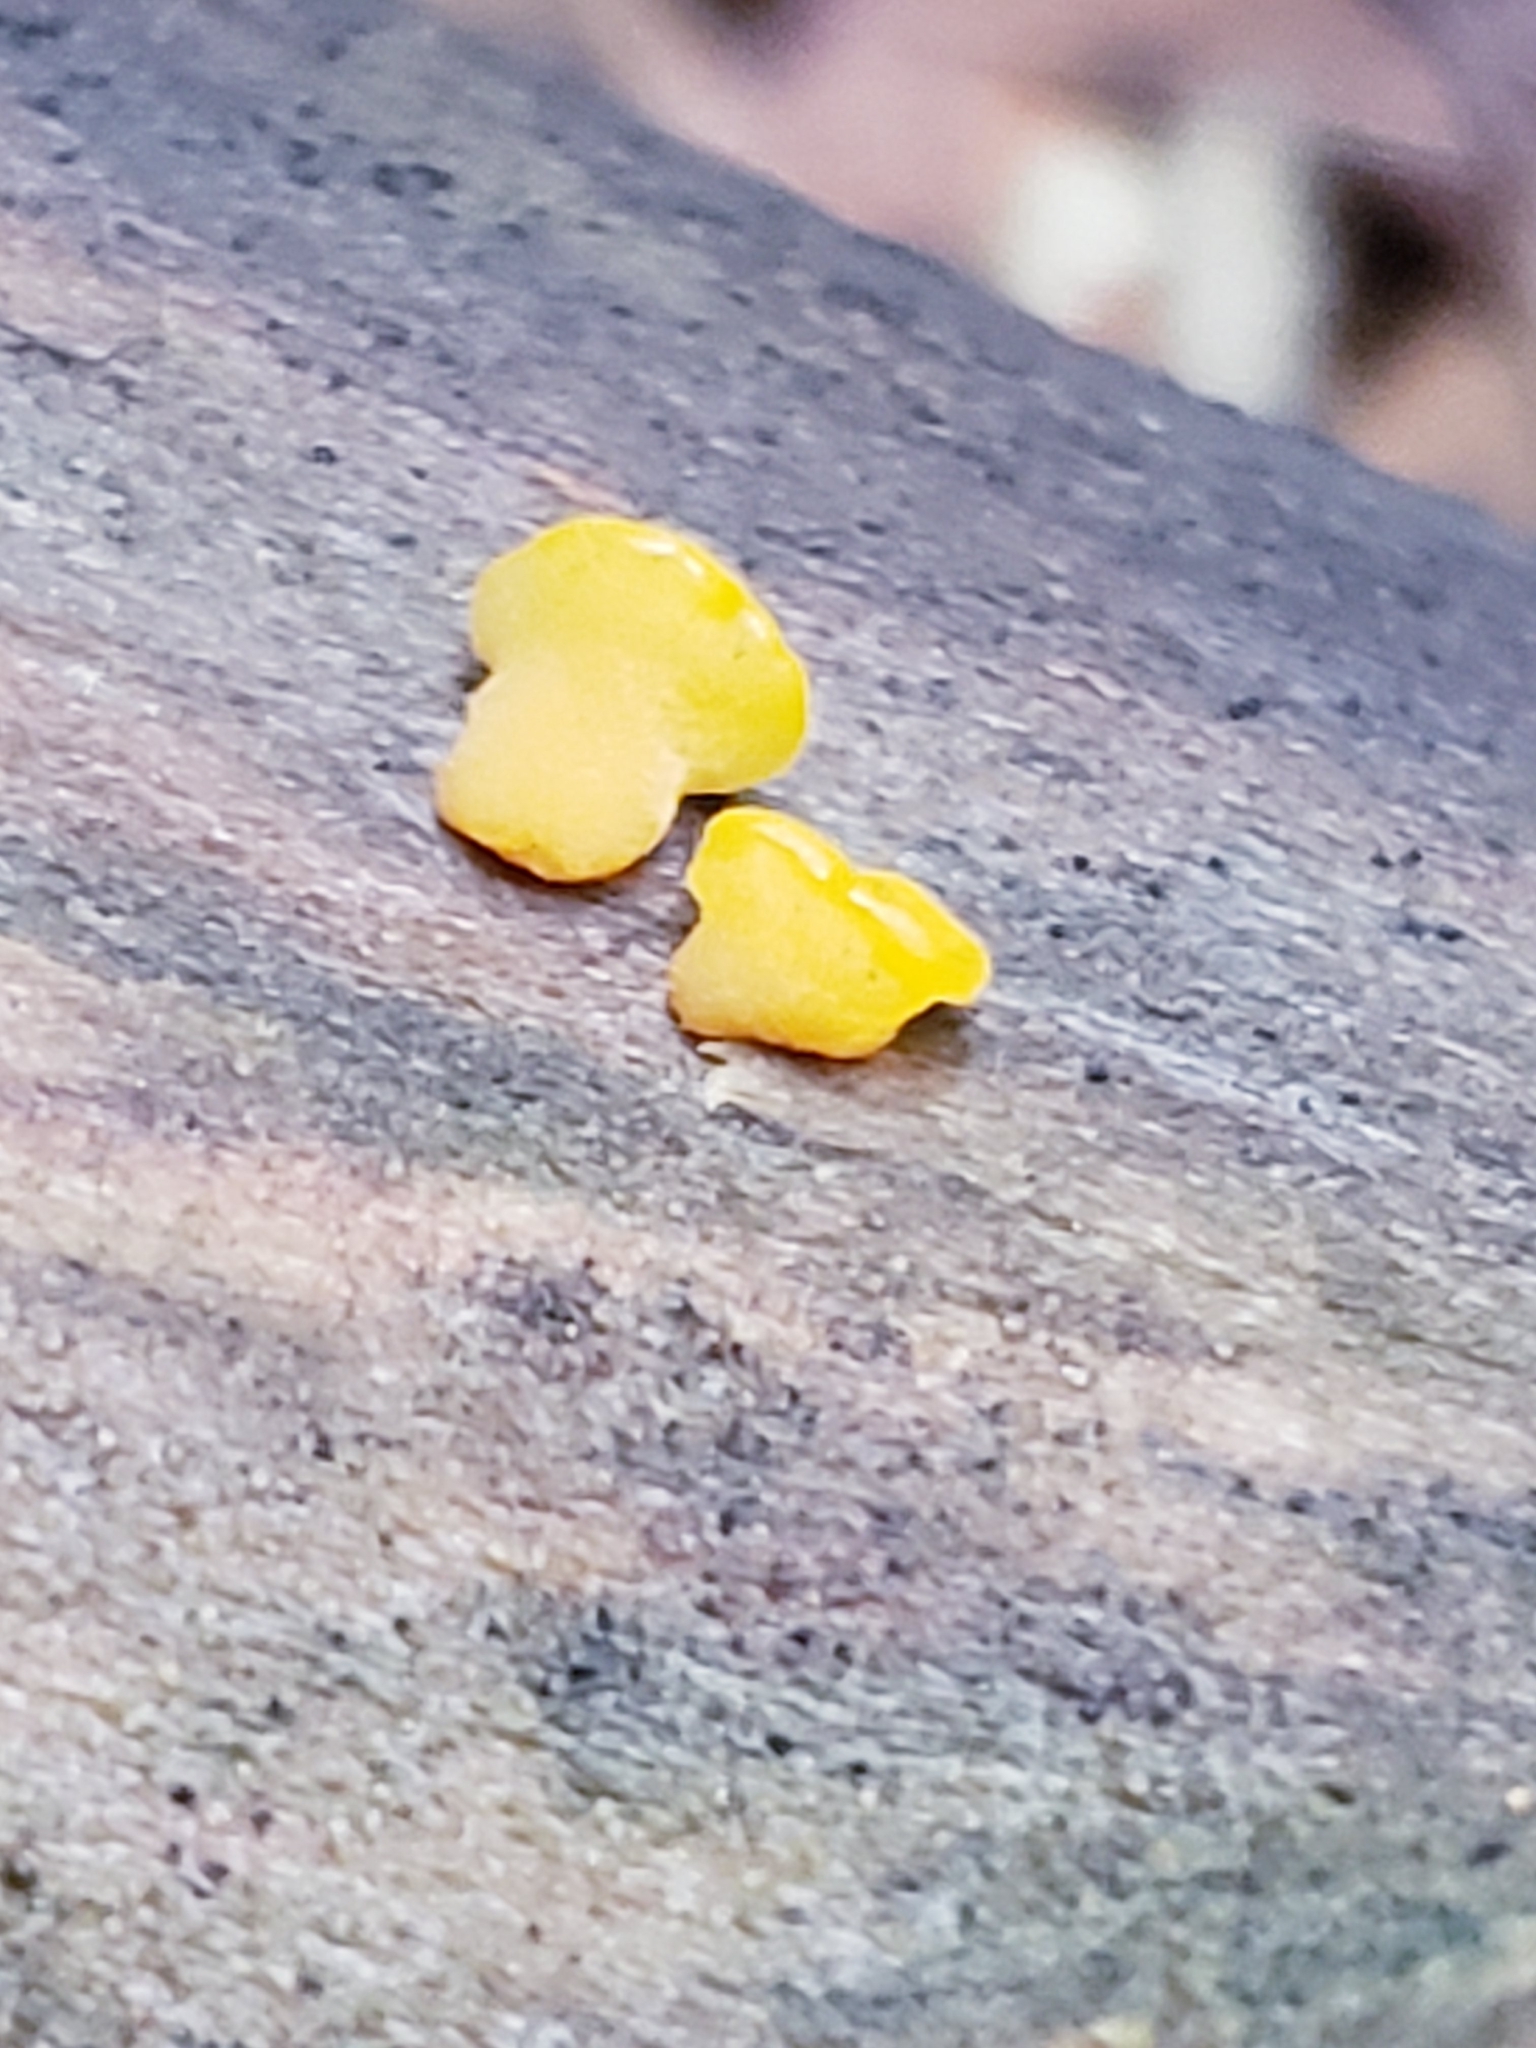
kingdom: Fungi
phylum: Basidiomycota
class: Dacrymycetes
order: Dacrymycetales
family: Dacrymycetaceae
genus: Dacrymyces
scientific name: Dacrymyces spathularius
